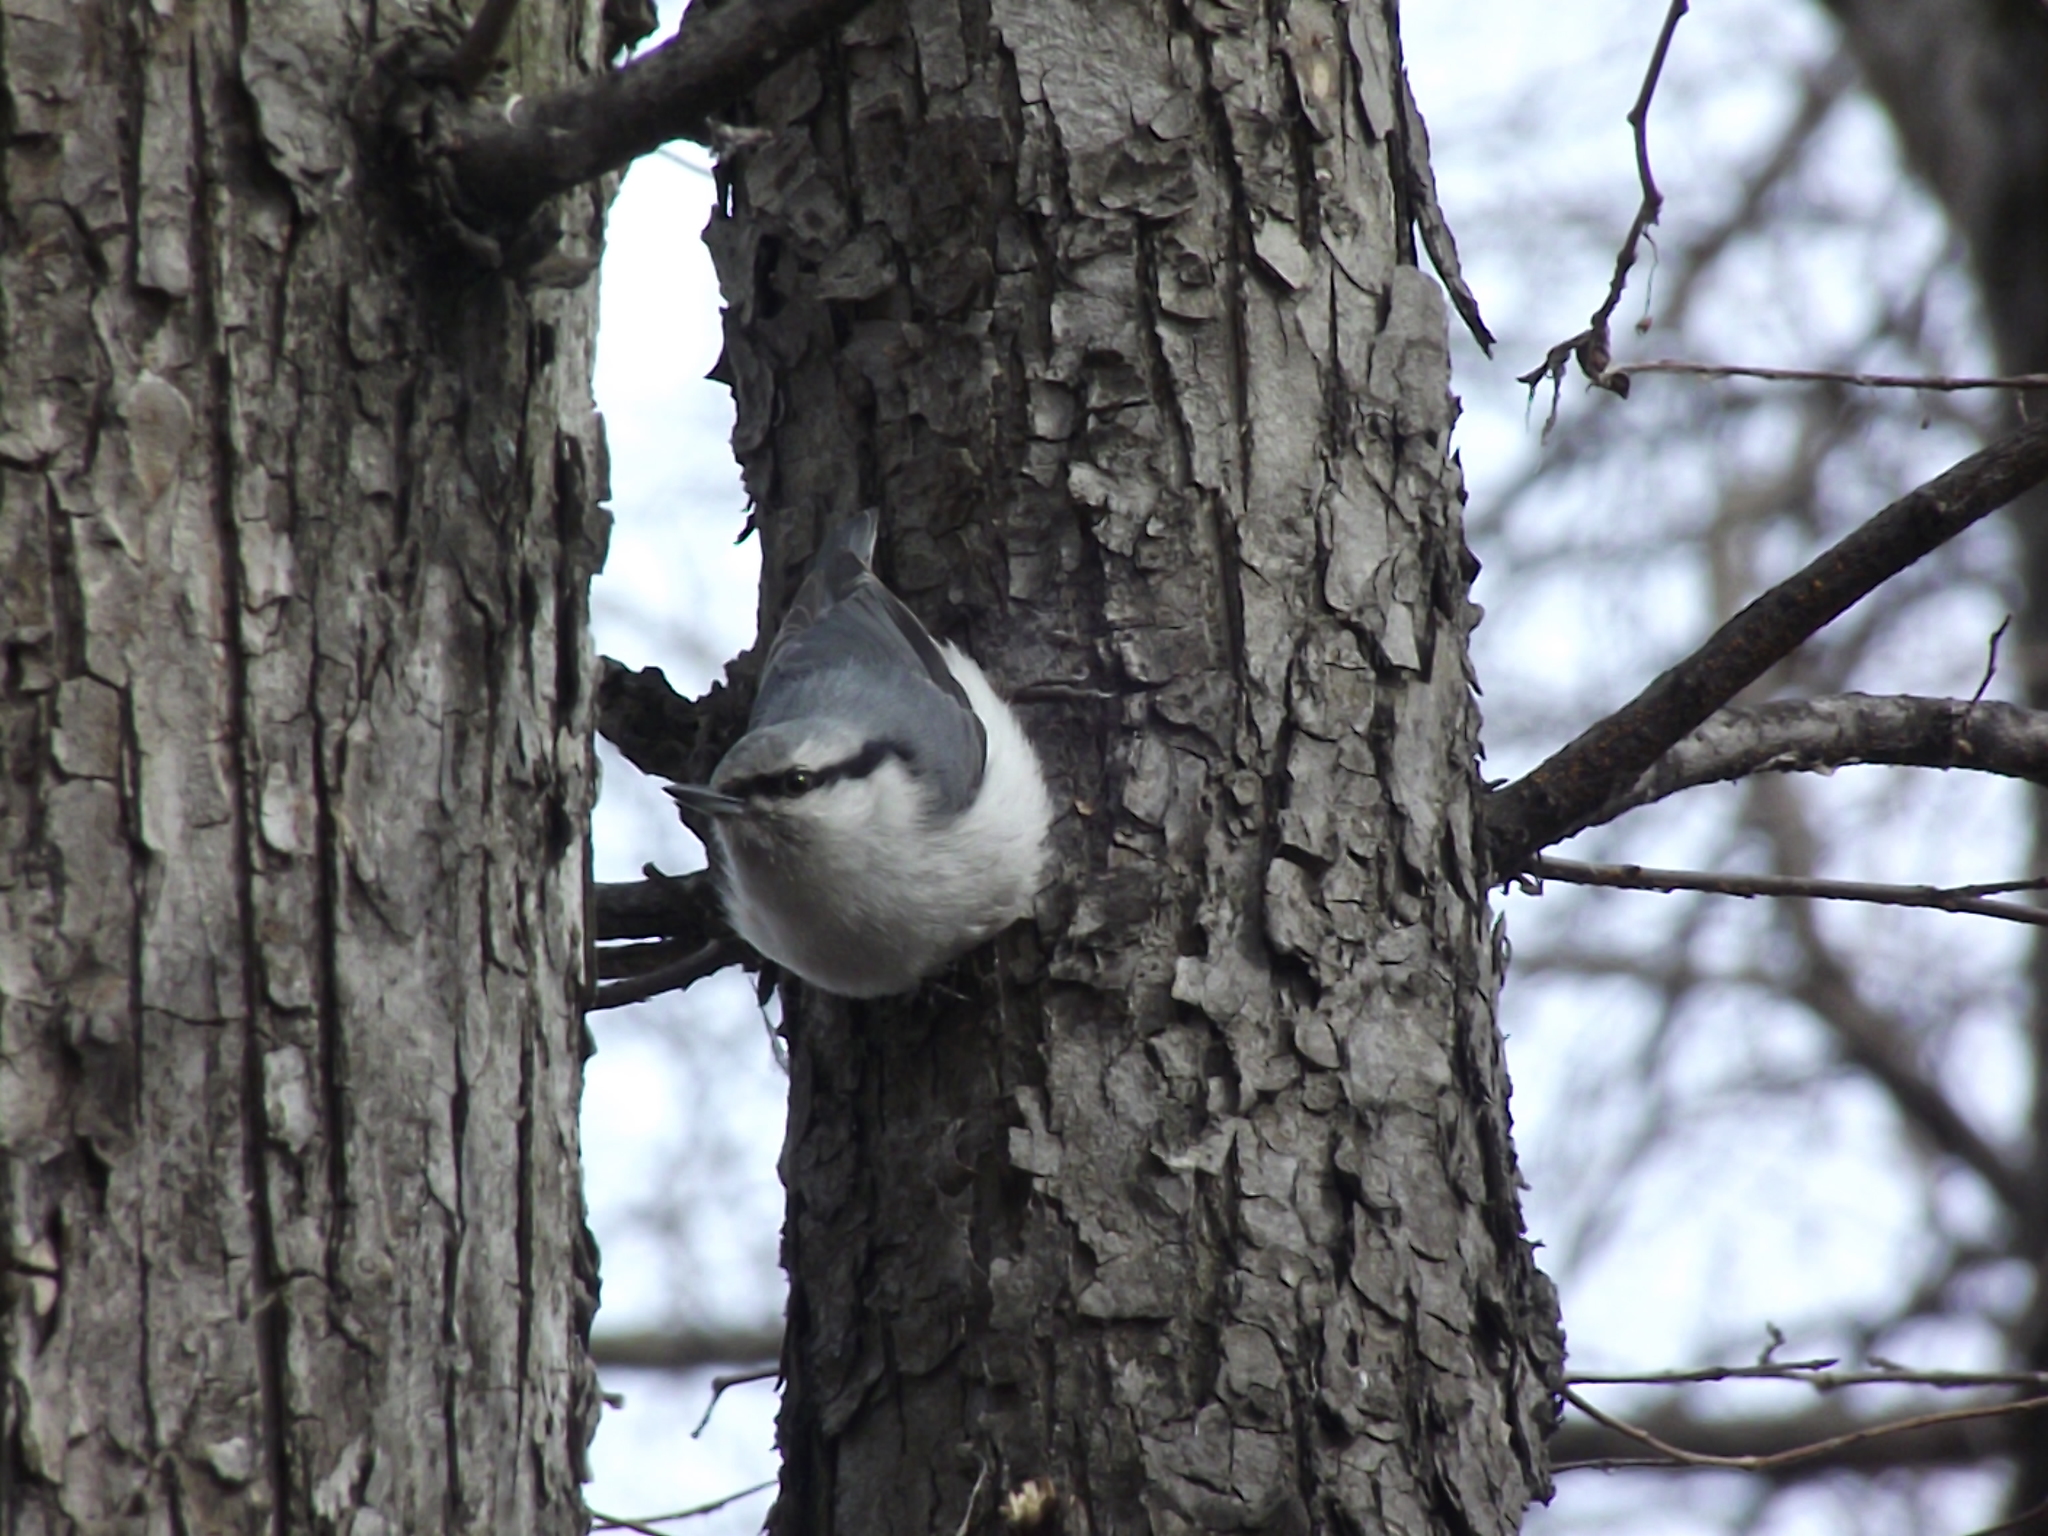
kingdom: Animalia
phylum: Chordata
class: Aves
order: Passeriformes
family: Sittidae
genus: Sitta
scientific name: Sitta europaea
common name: Eurasian nuthatch
